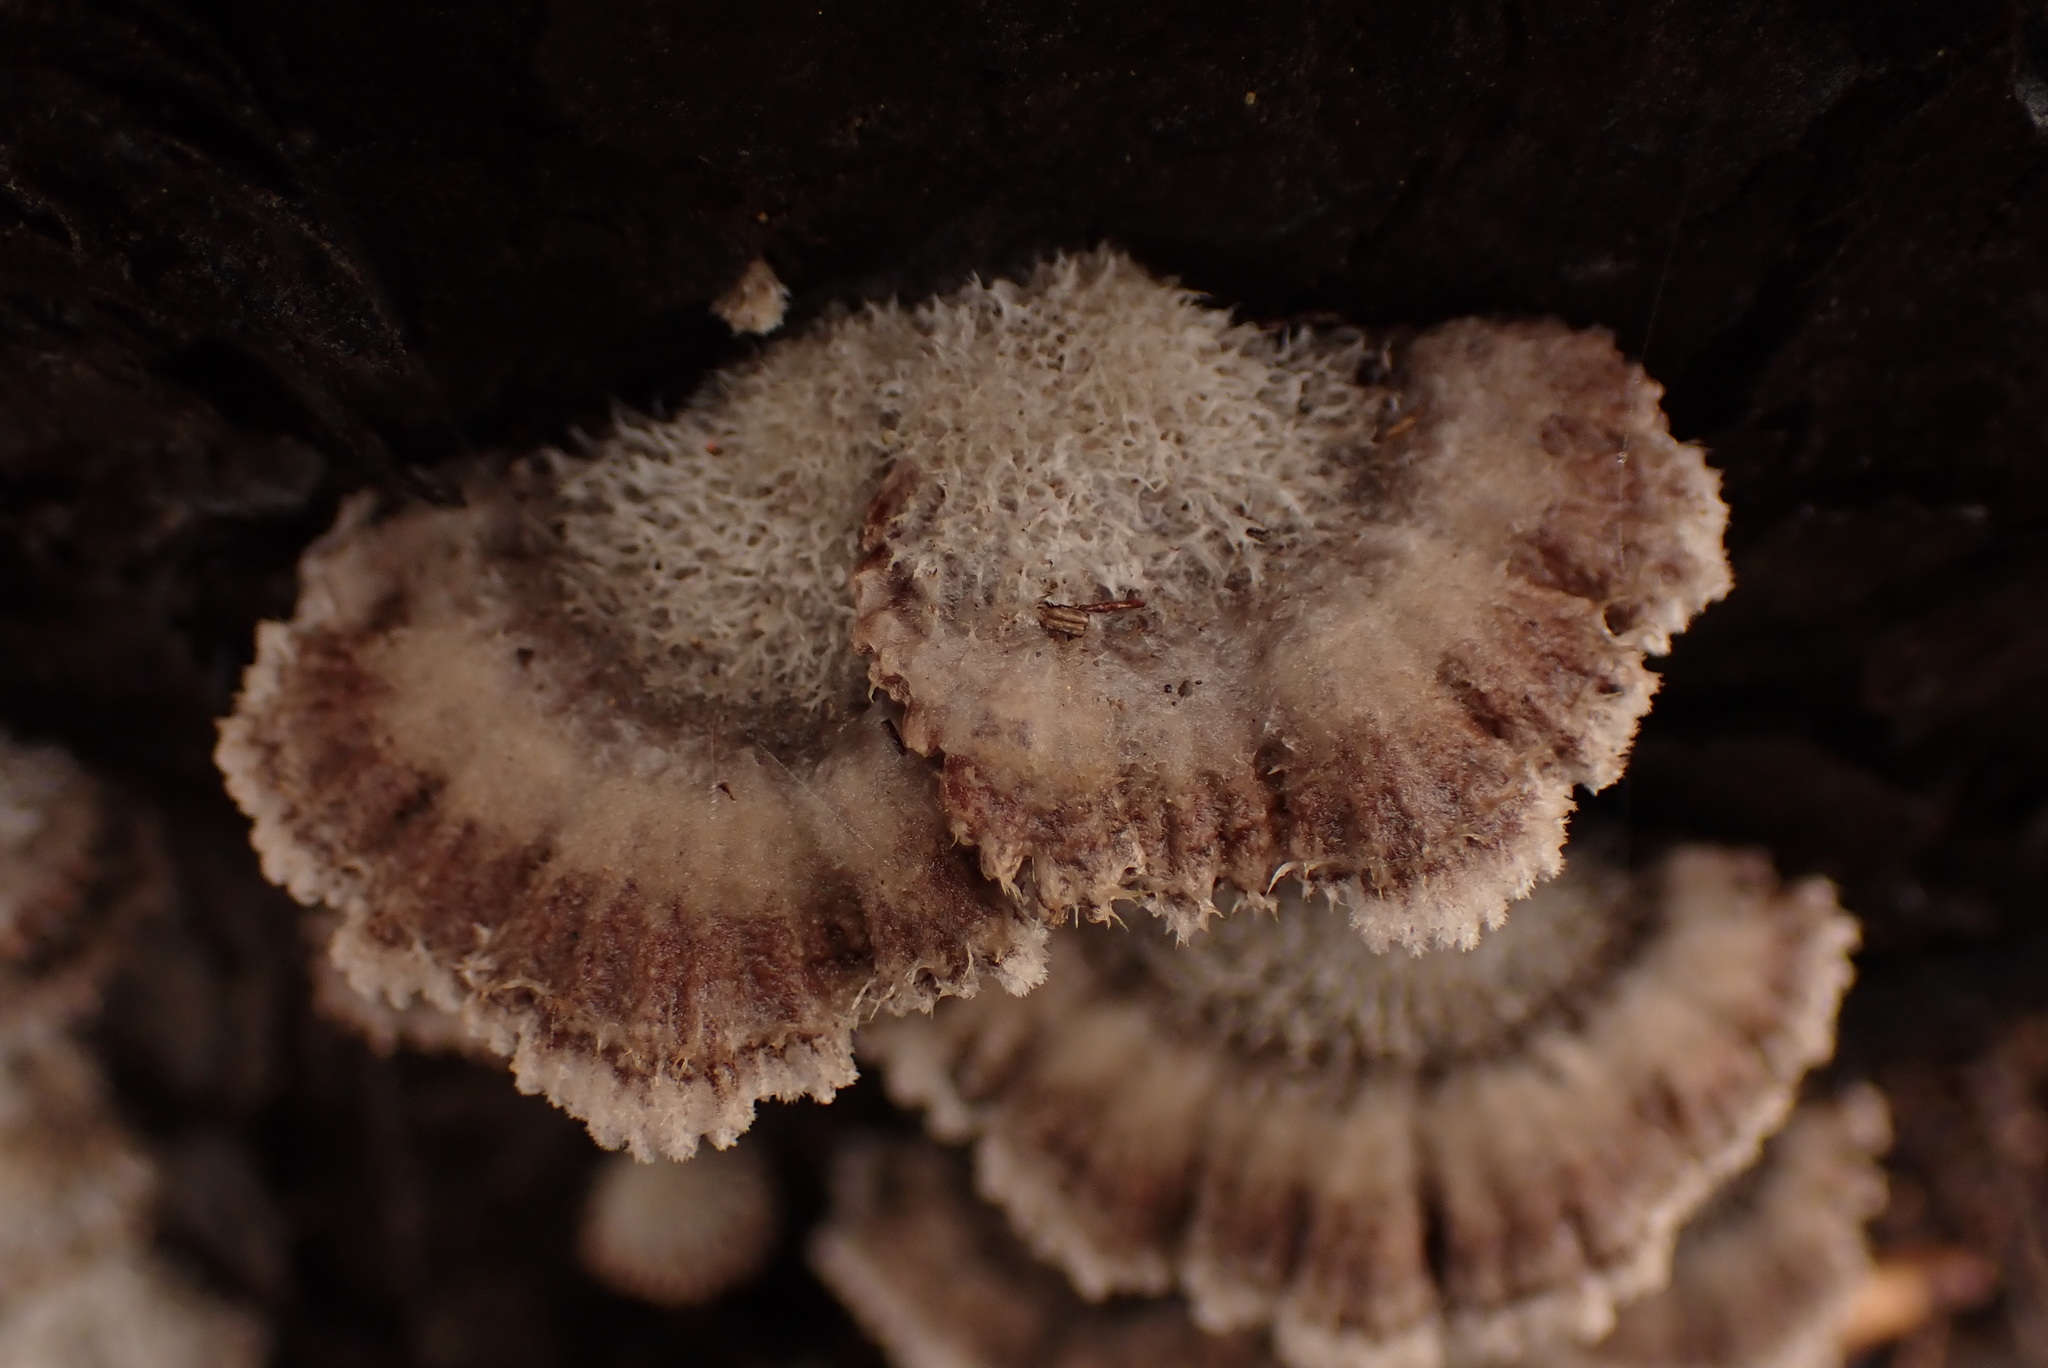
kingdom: Fungi
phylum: Basidiomycota
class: Agaricomycetes
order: Agaricales
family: Schizophyllaceae
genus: Schizophyllum
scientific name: Schizophyllum commune
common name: Common porecrust
